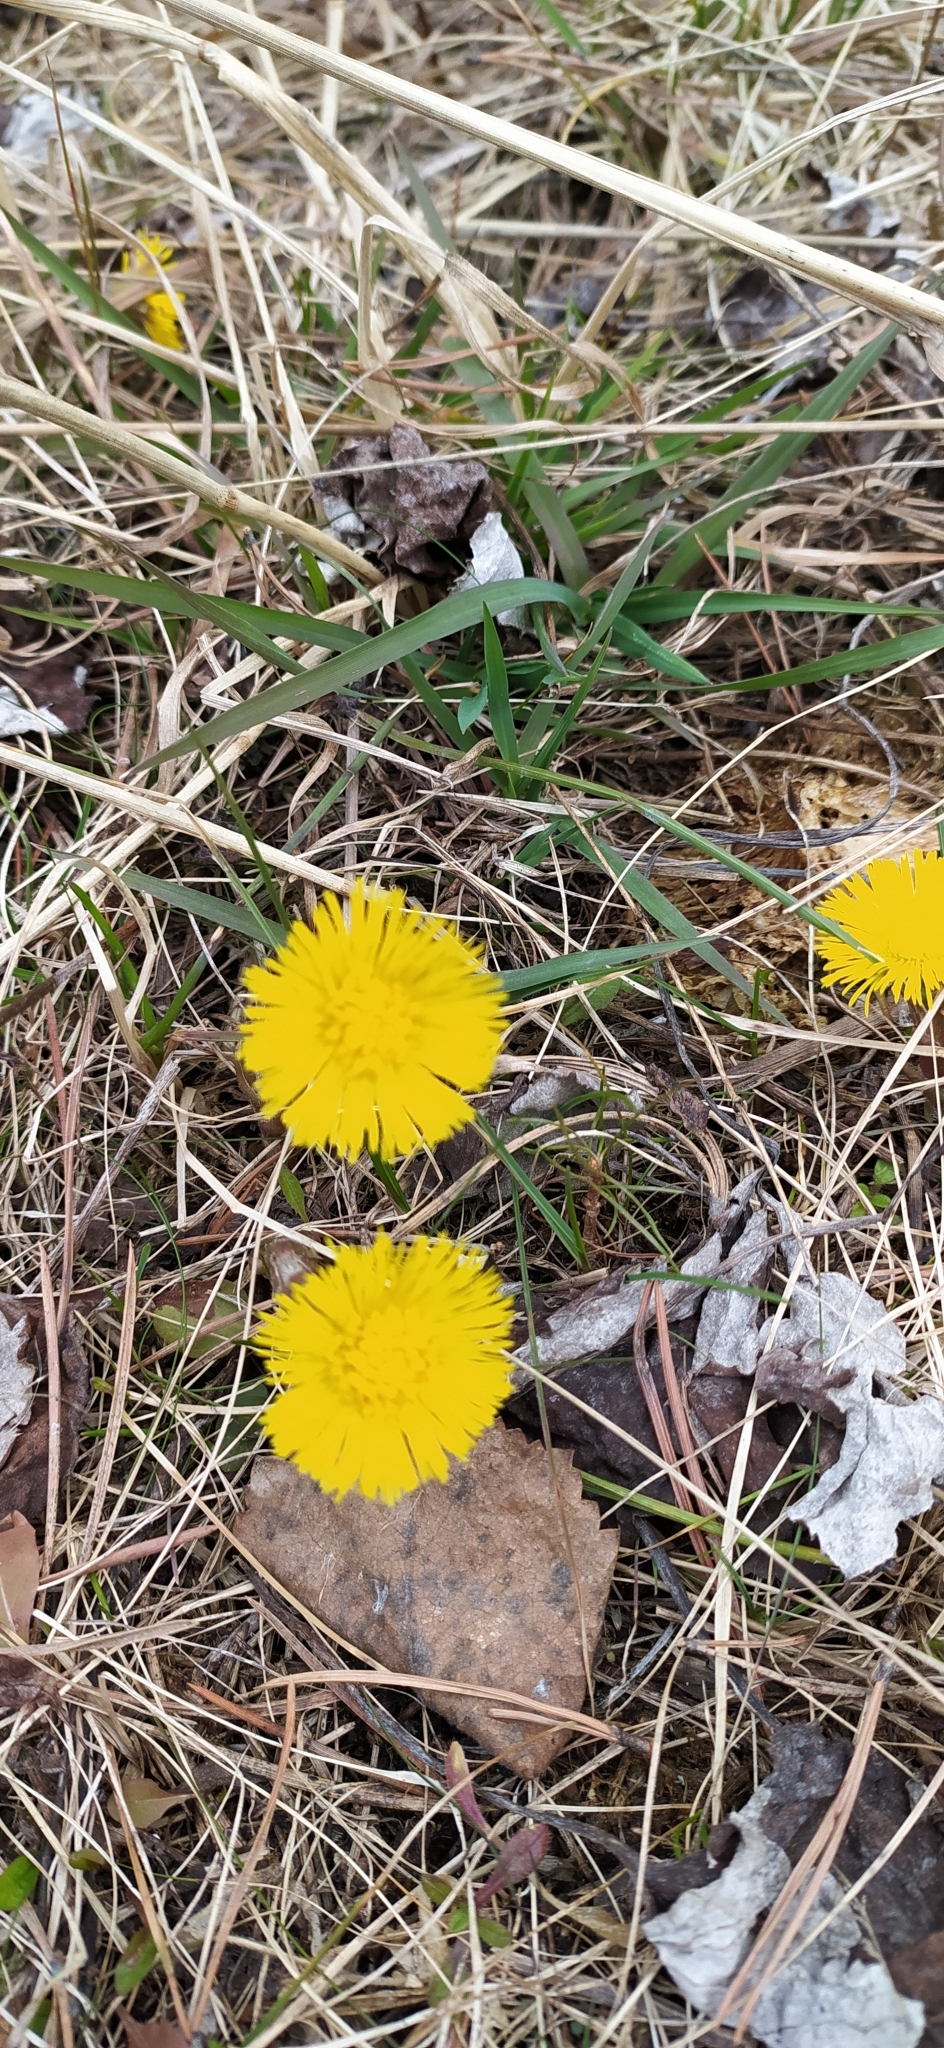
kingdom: Plantae
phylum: Tracheophyta
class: Magnoliopsida
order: Asterales
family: Asteraceae
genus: Tussilago
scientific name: Tussilago farfara
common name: Coltsfoot
